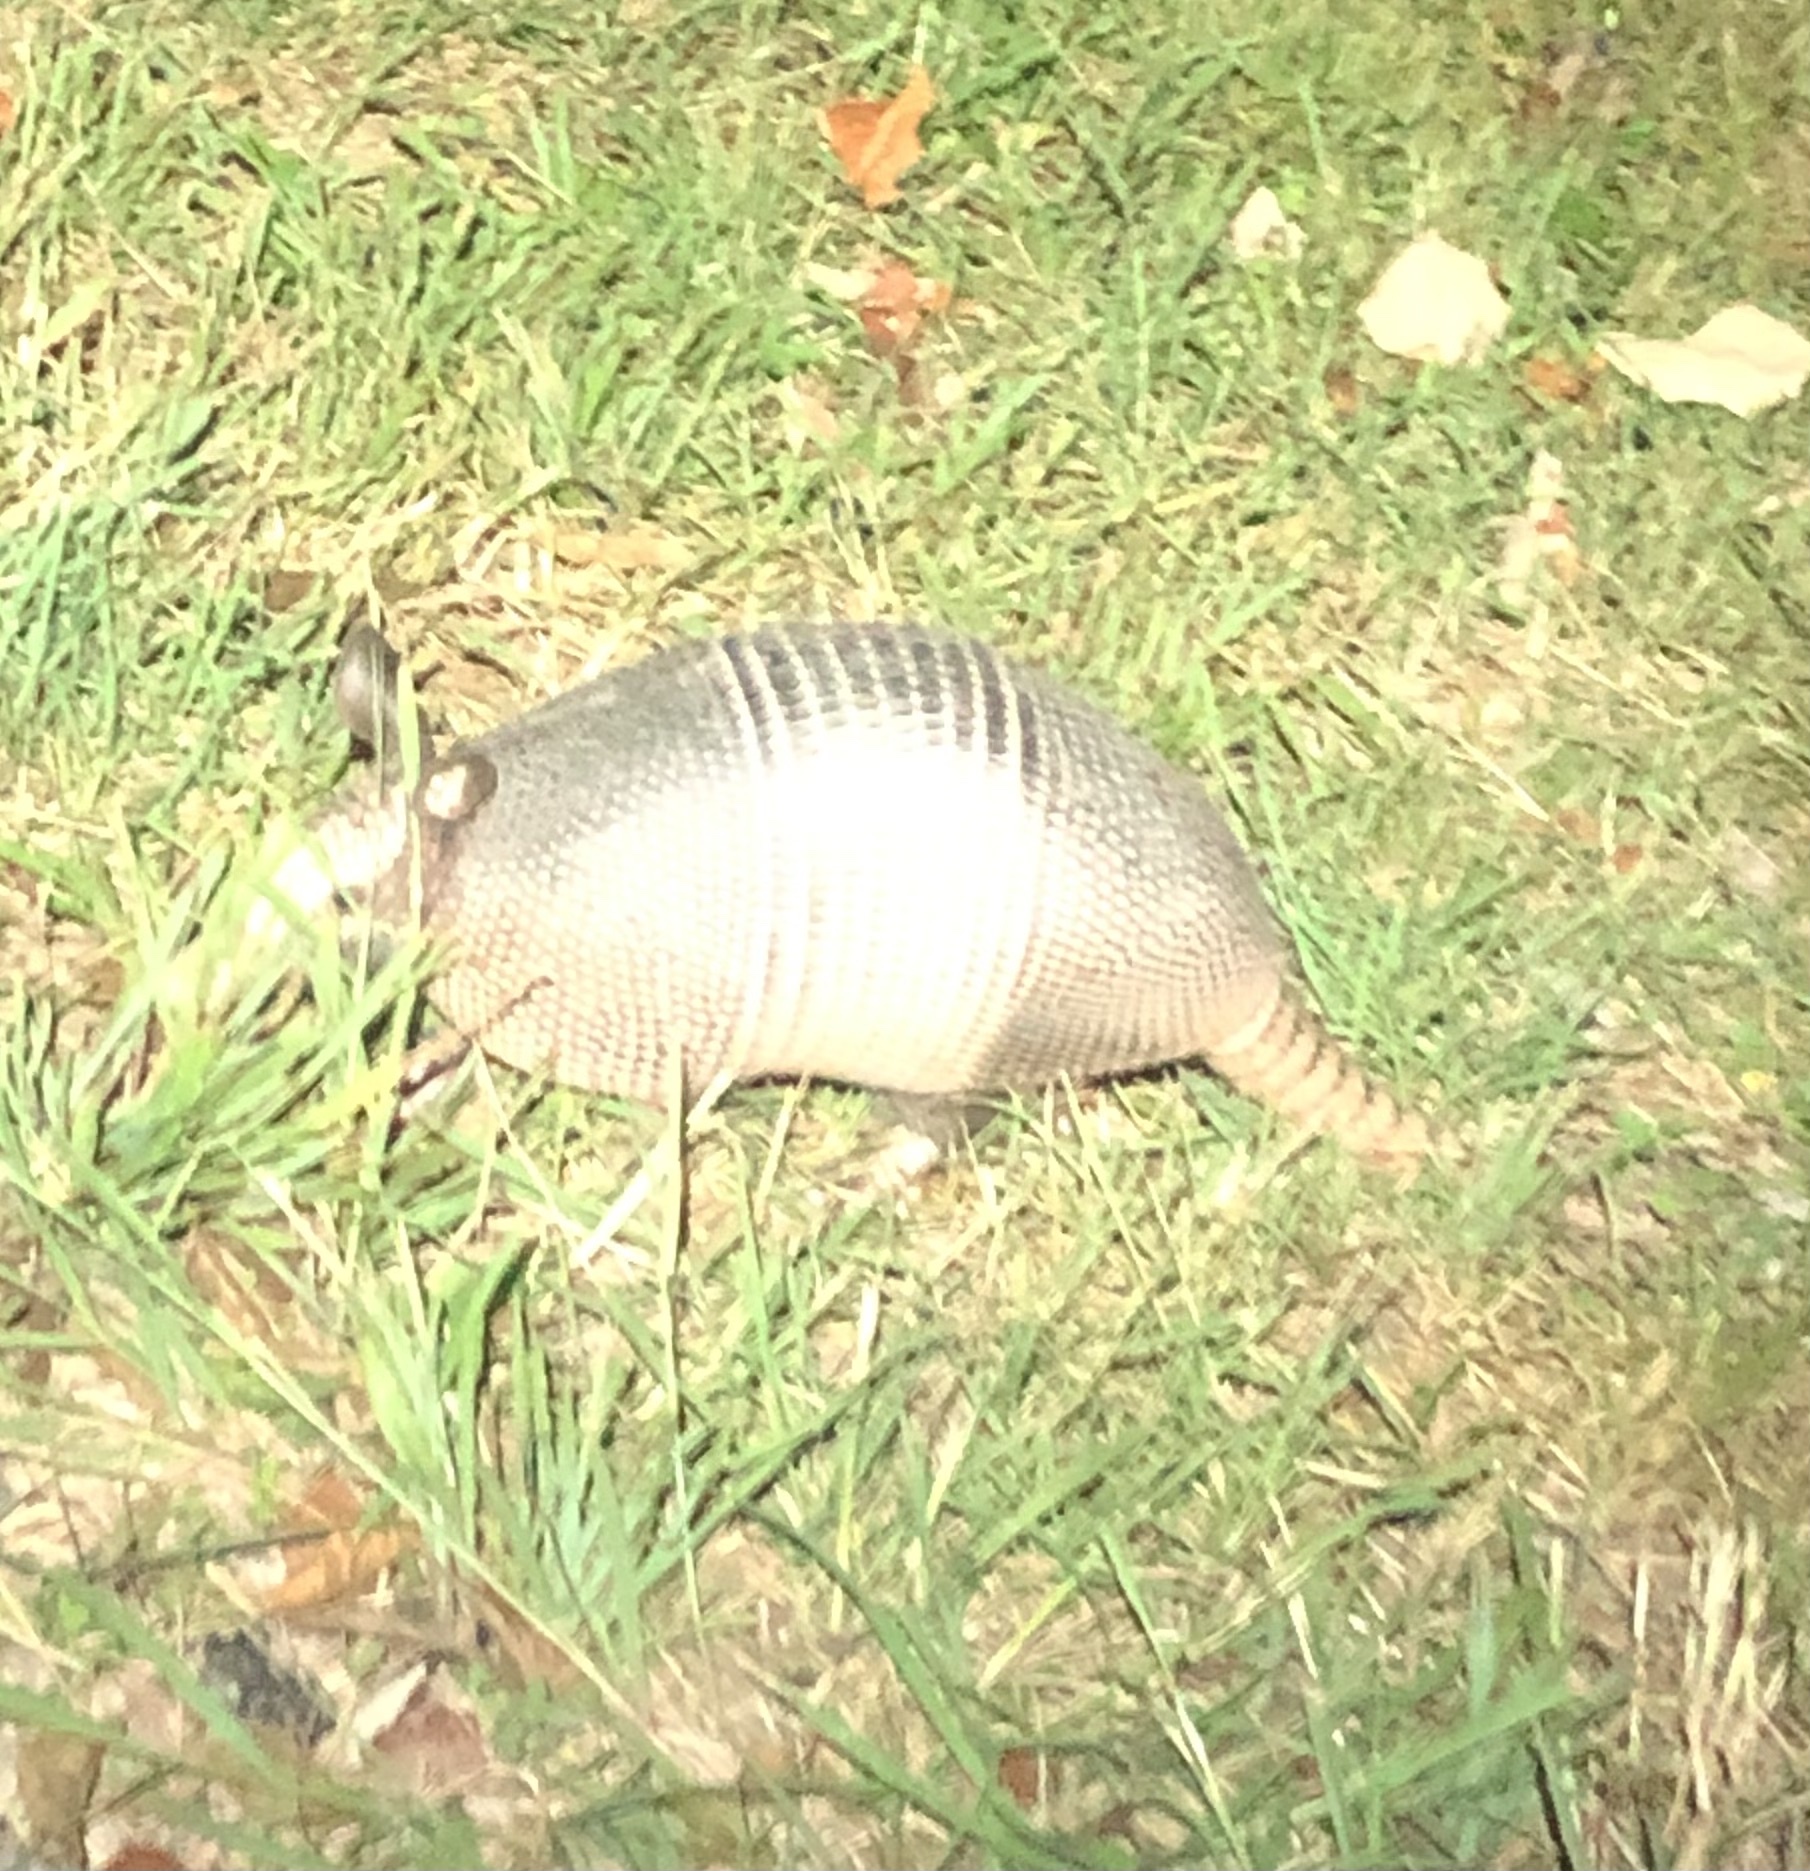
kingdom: Animalia
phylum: Chordata
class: Mammalia
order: Cingulata
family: Dasypodidae
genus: Dasypus
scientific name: Dasypus novemcinctus
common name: Nine-banded armadillo
